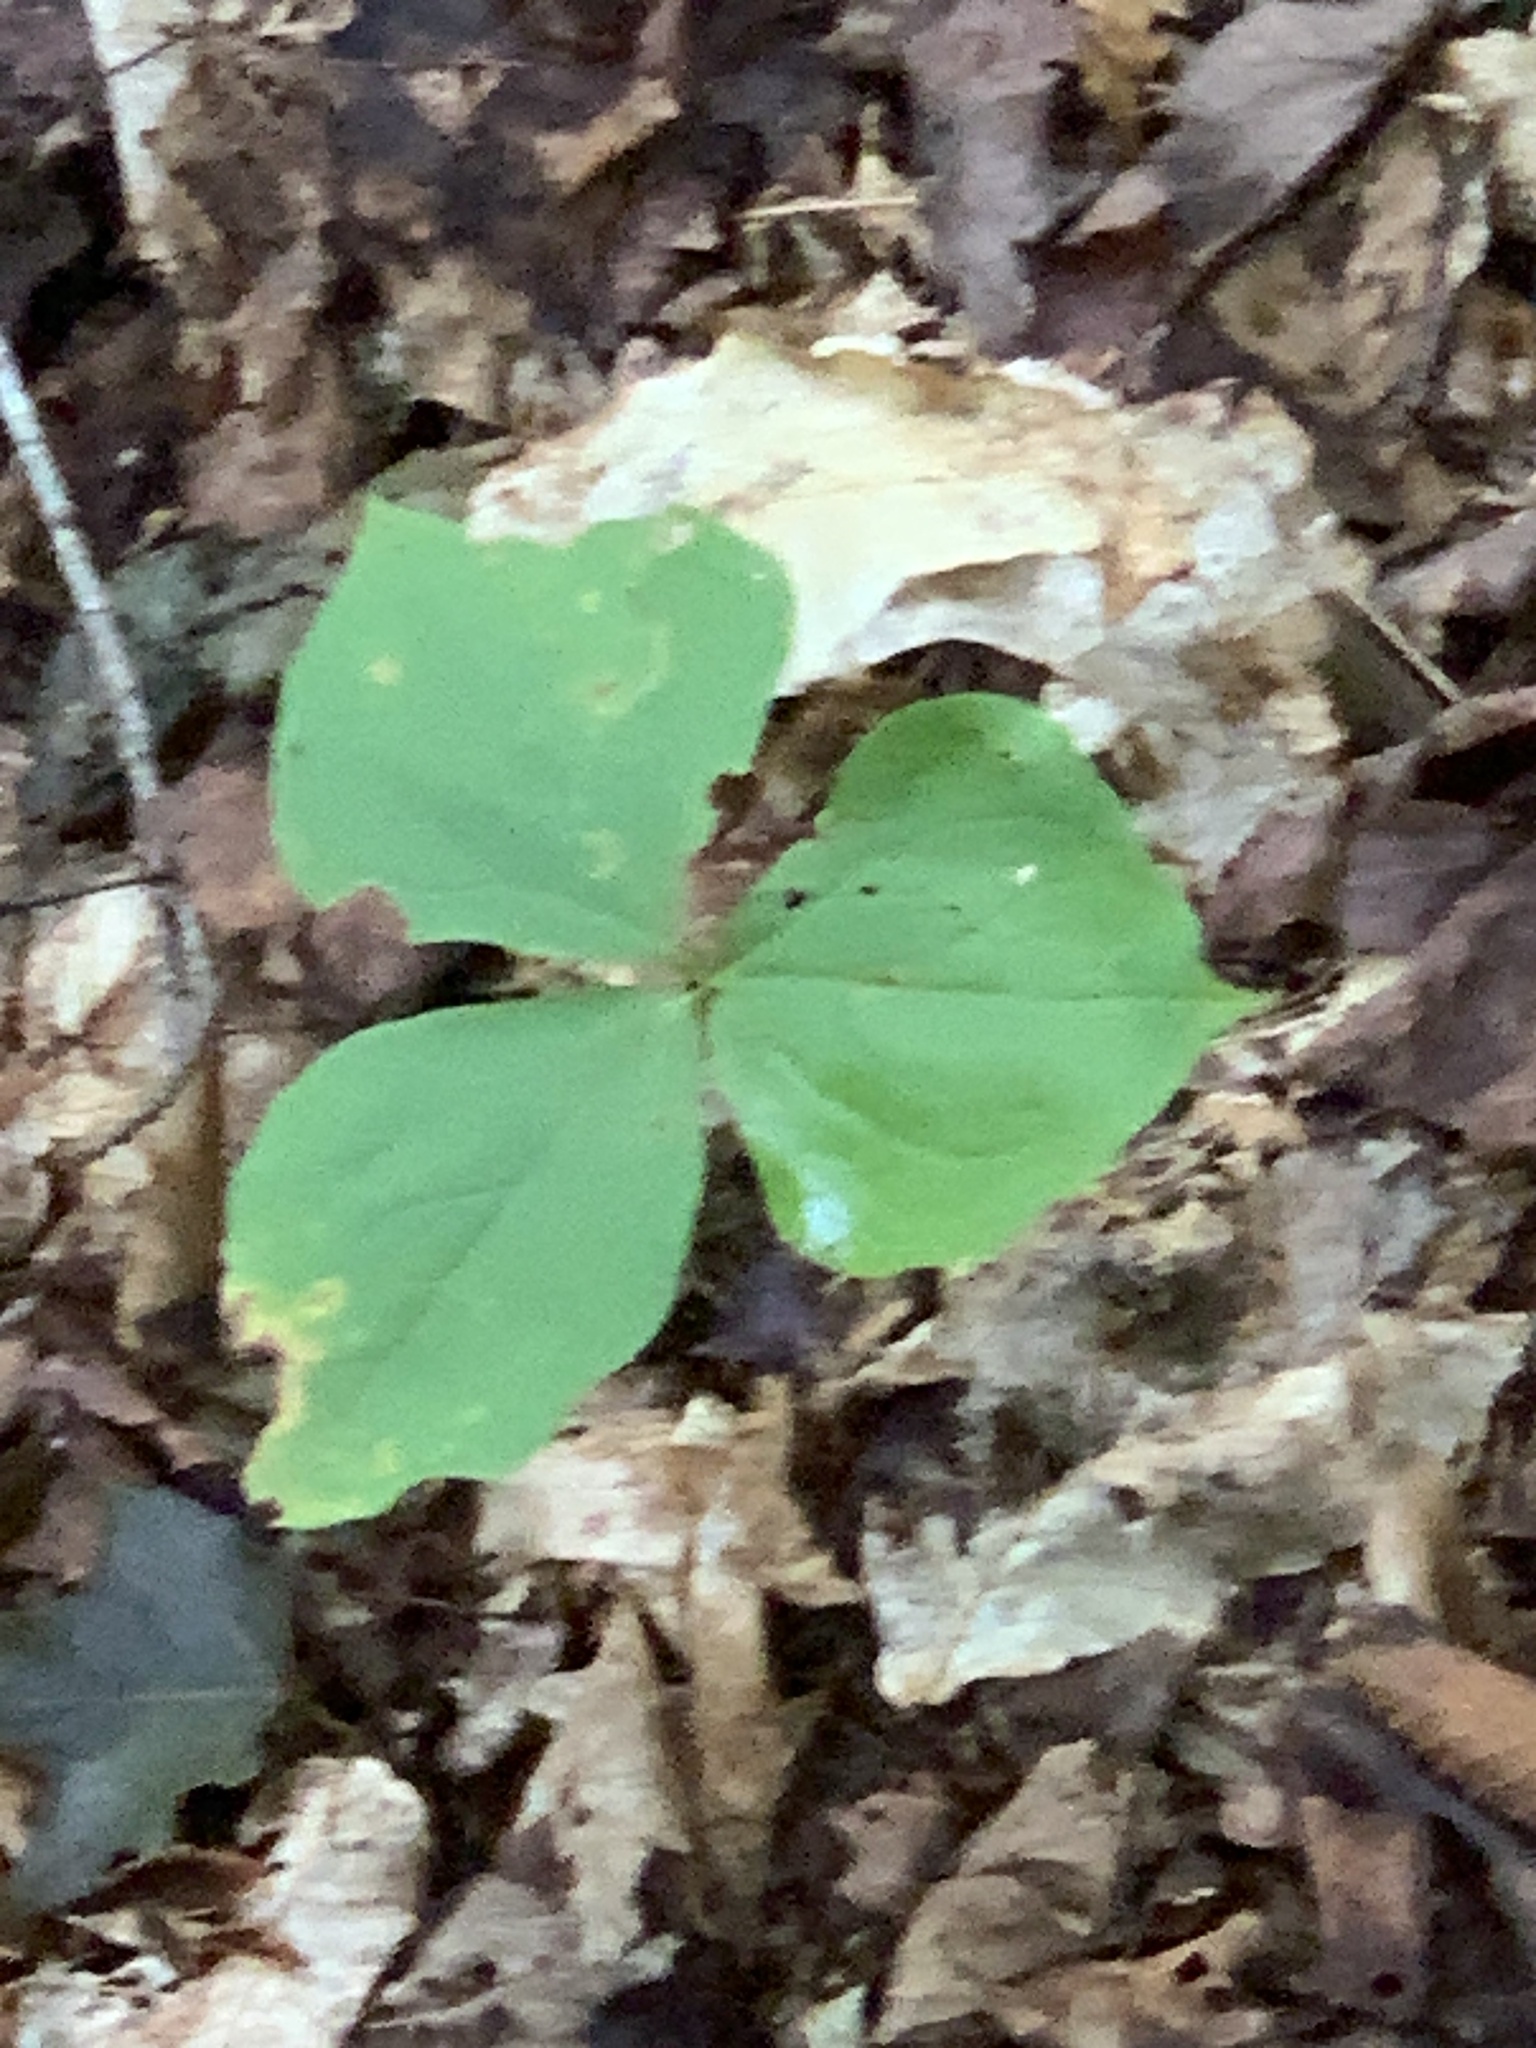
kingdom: Plantae
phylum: Tracheophyta
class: Liliopsida
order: Liliales
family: Melanthiaceae
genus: Trillium
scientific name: Trillium erectum
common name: Purple trillium
